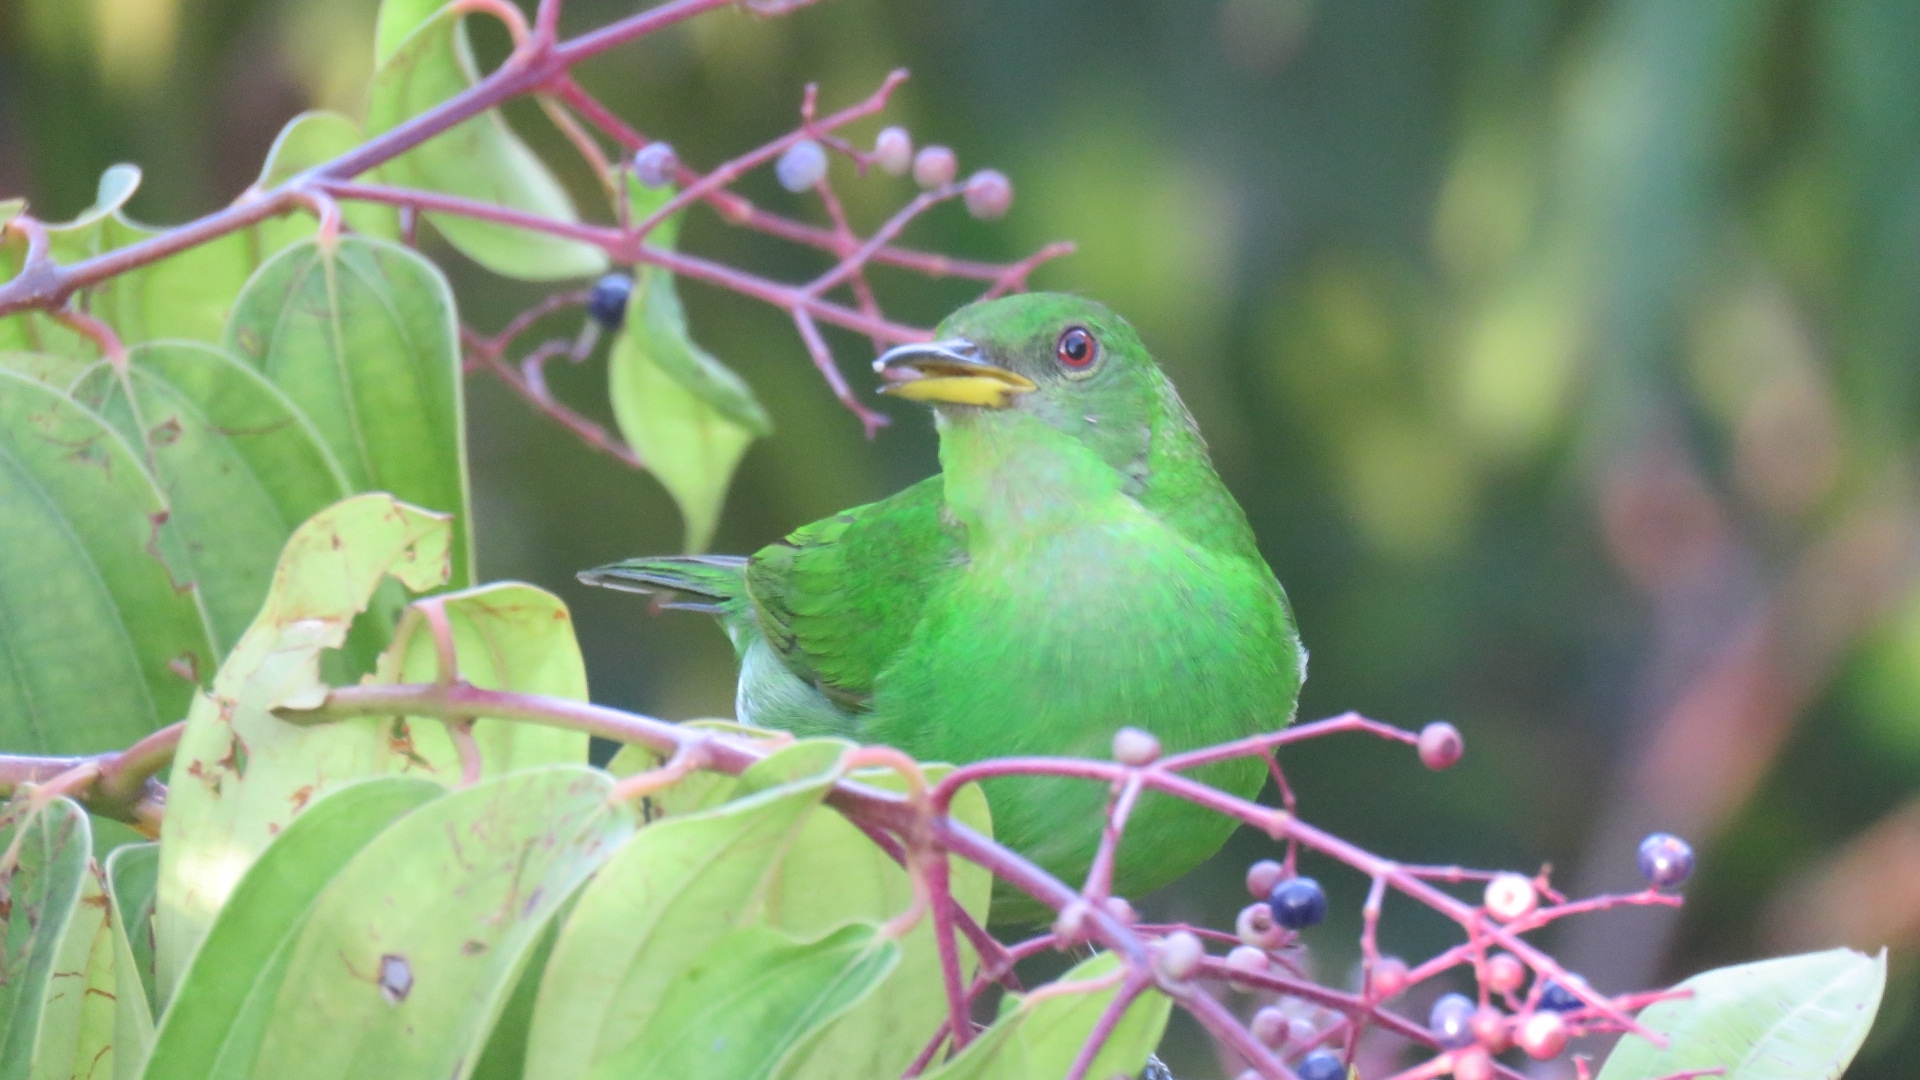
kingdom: Animalia
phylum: Chordata
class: Aves
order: Passeriformes
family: Thraupidae
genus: Chlorophanes
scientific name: Chlorophanes spiza
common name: Green honeycreeper
